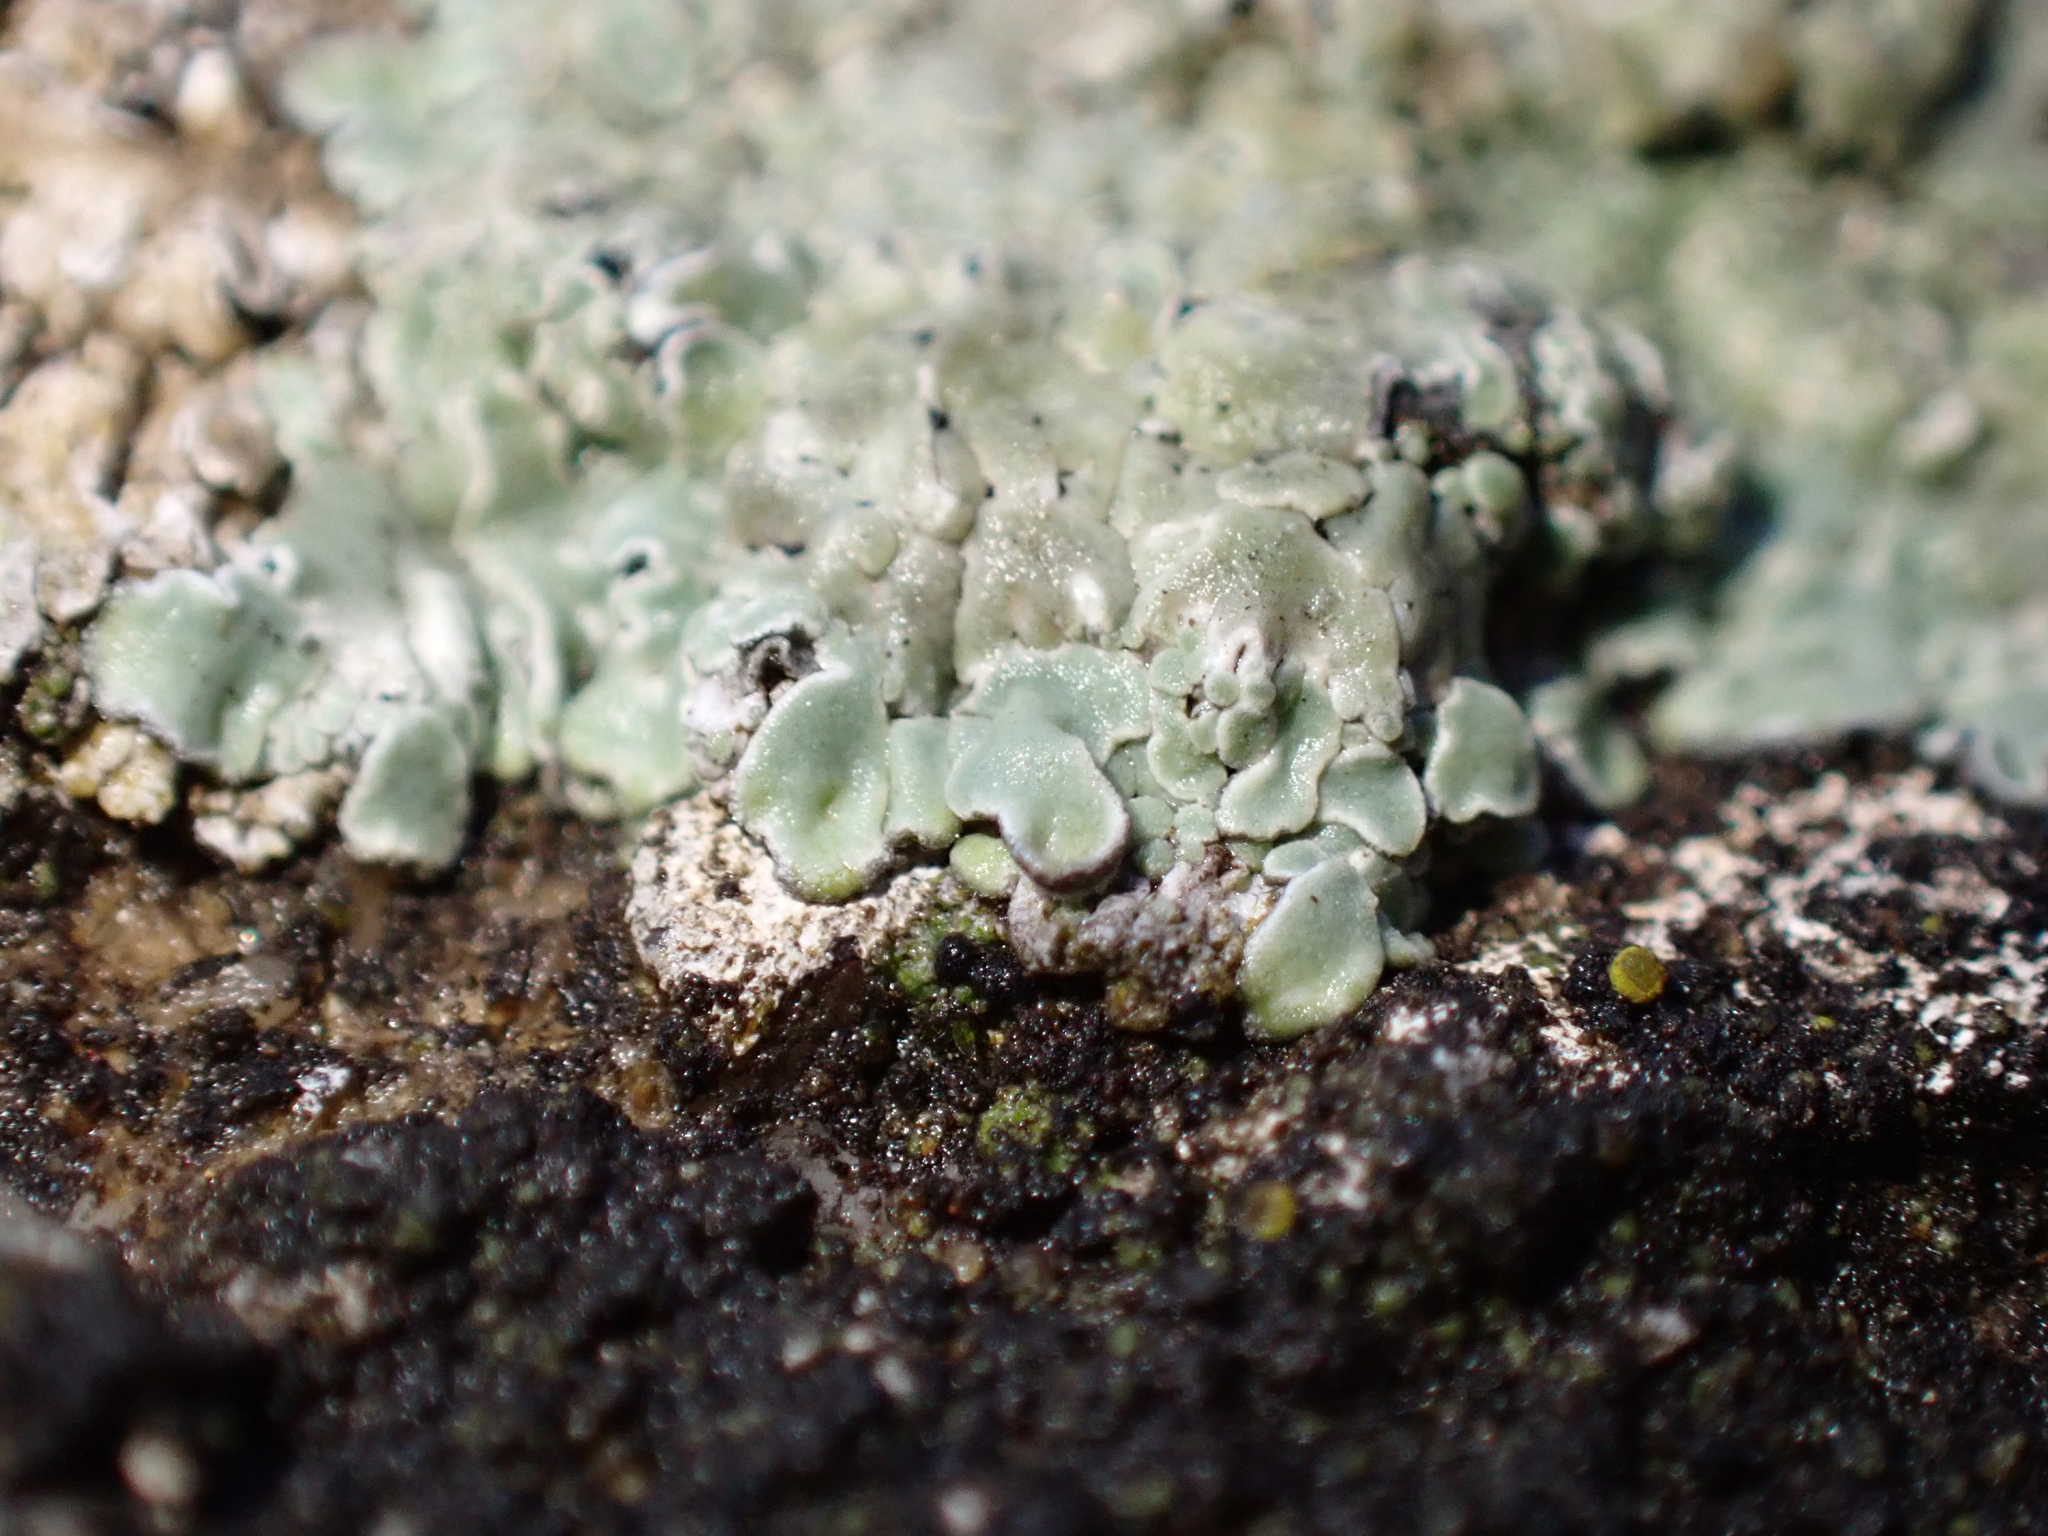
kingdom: Fungi
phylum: Ascomycota
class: Lecanoromycetes
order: Lecanorales
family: Lecanoraceae
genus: Protoparmeliopsis
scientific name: Protoparmeliopsis muralis
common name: Stonewall rim lichen
